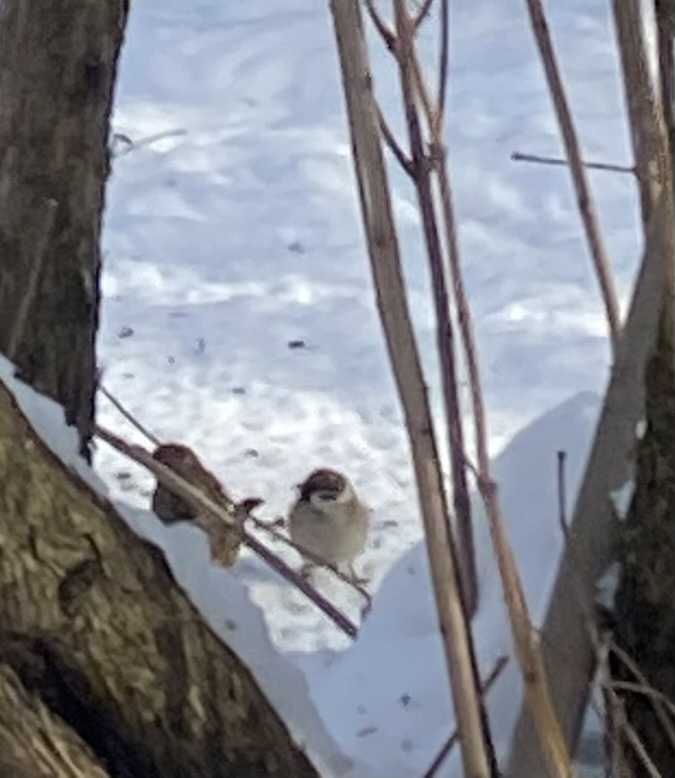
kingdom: Animalia
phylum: Chordata
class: Aves
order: Passeriformes
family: Passeridae
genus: Passer
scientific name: Passer montanus
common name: Eurasian tree sparrow
